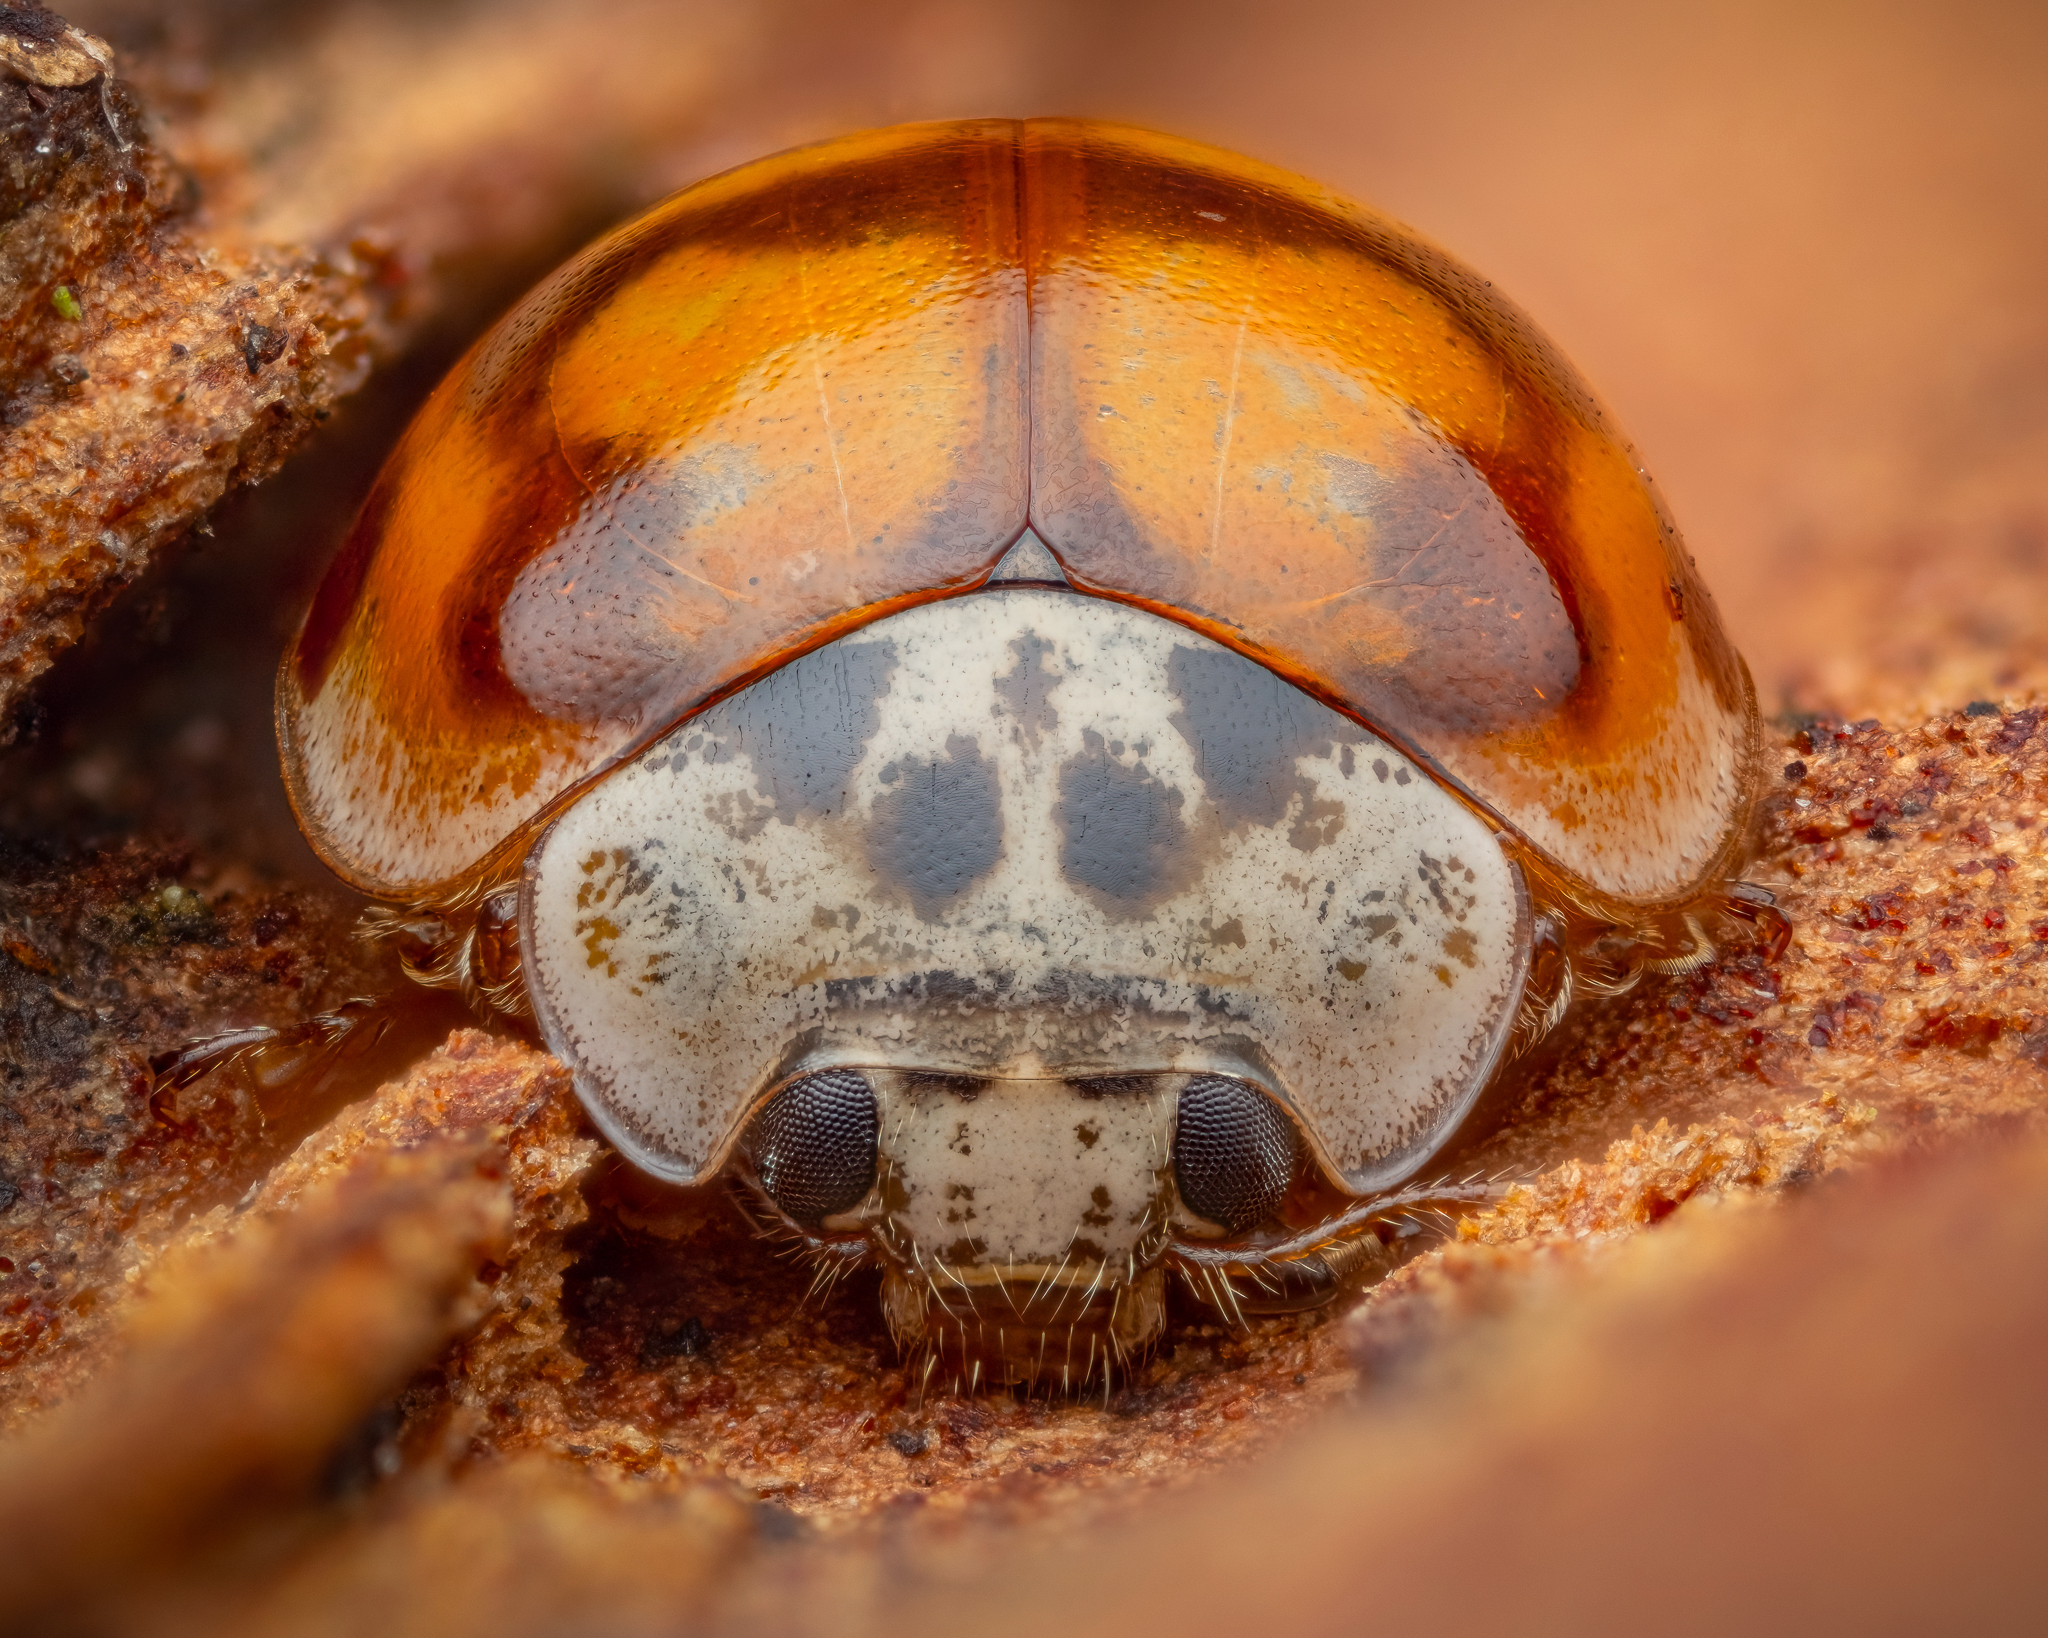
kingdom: Animalia
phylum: Arthropoda
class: Insecta
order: Coleoptera
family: Coccinellidae
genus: Adalia
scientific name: Adalia decempunctata
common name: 10-spot ladybird
